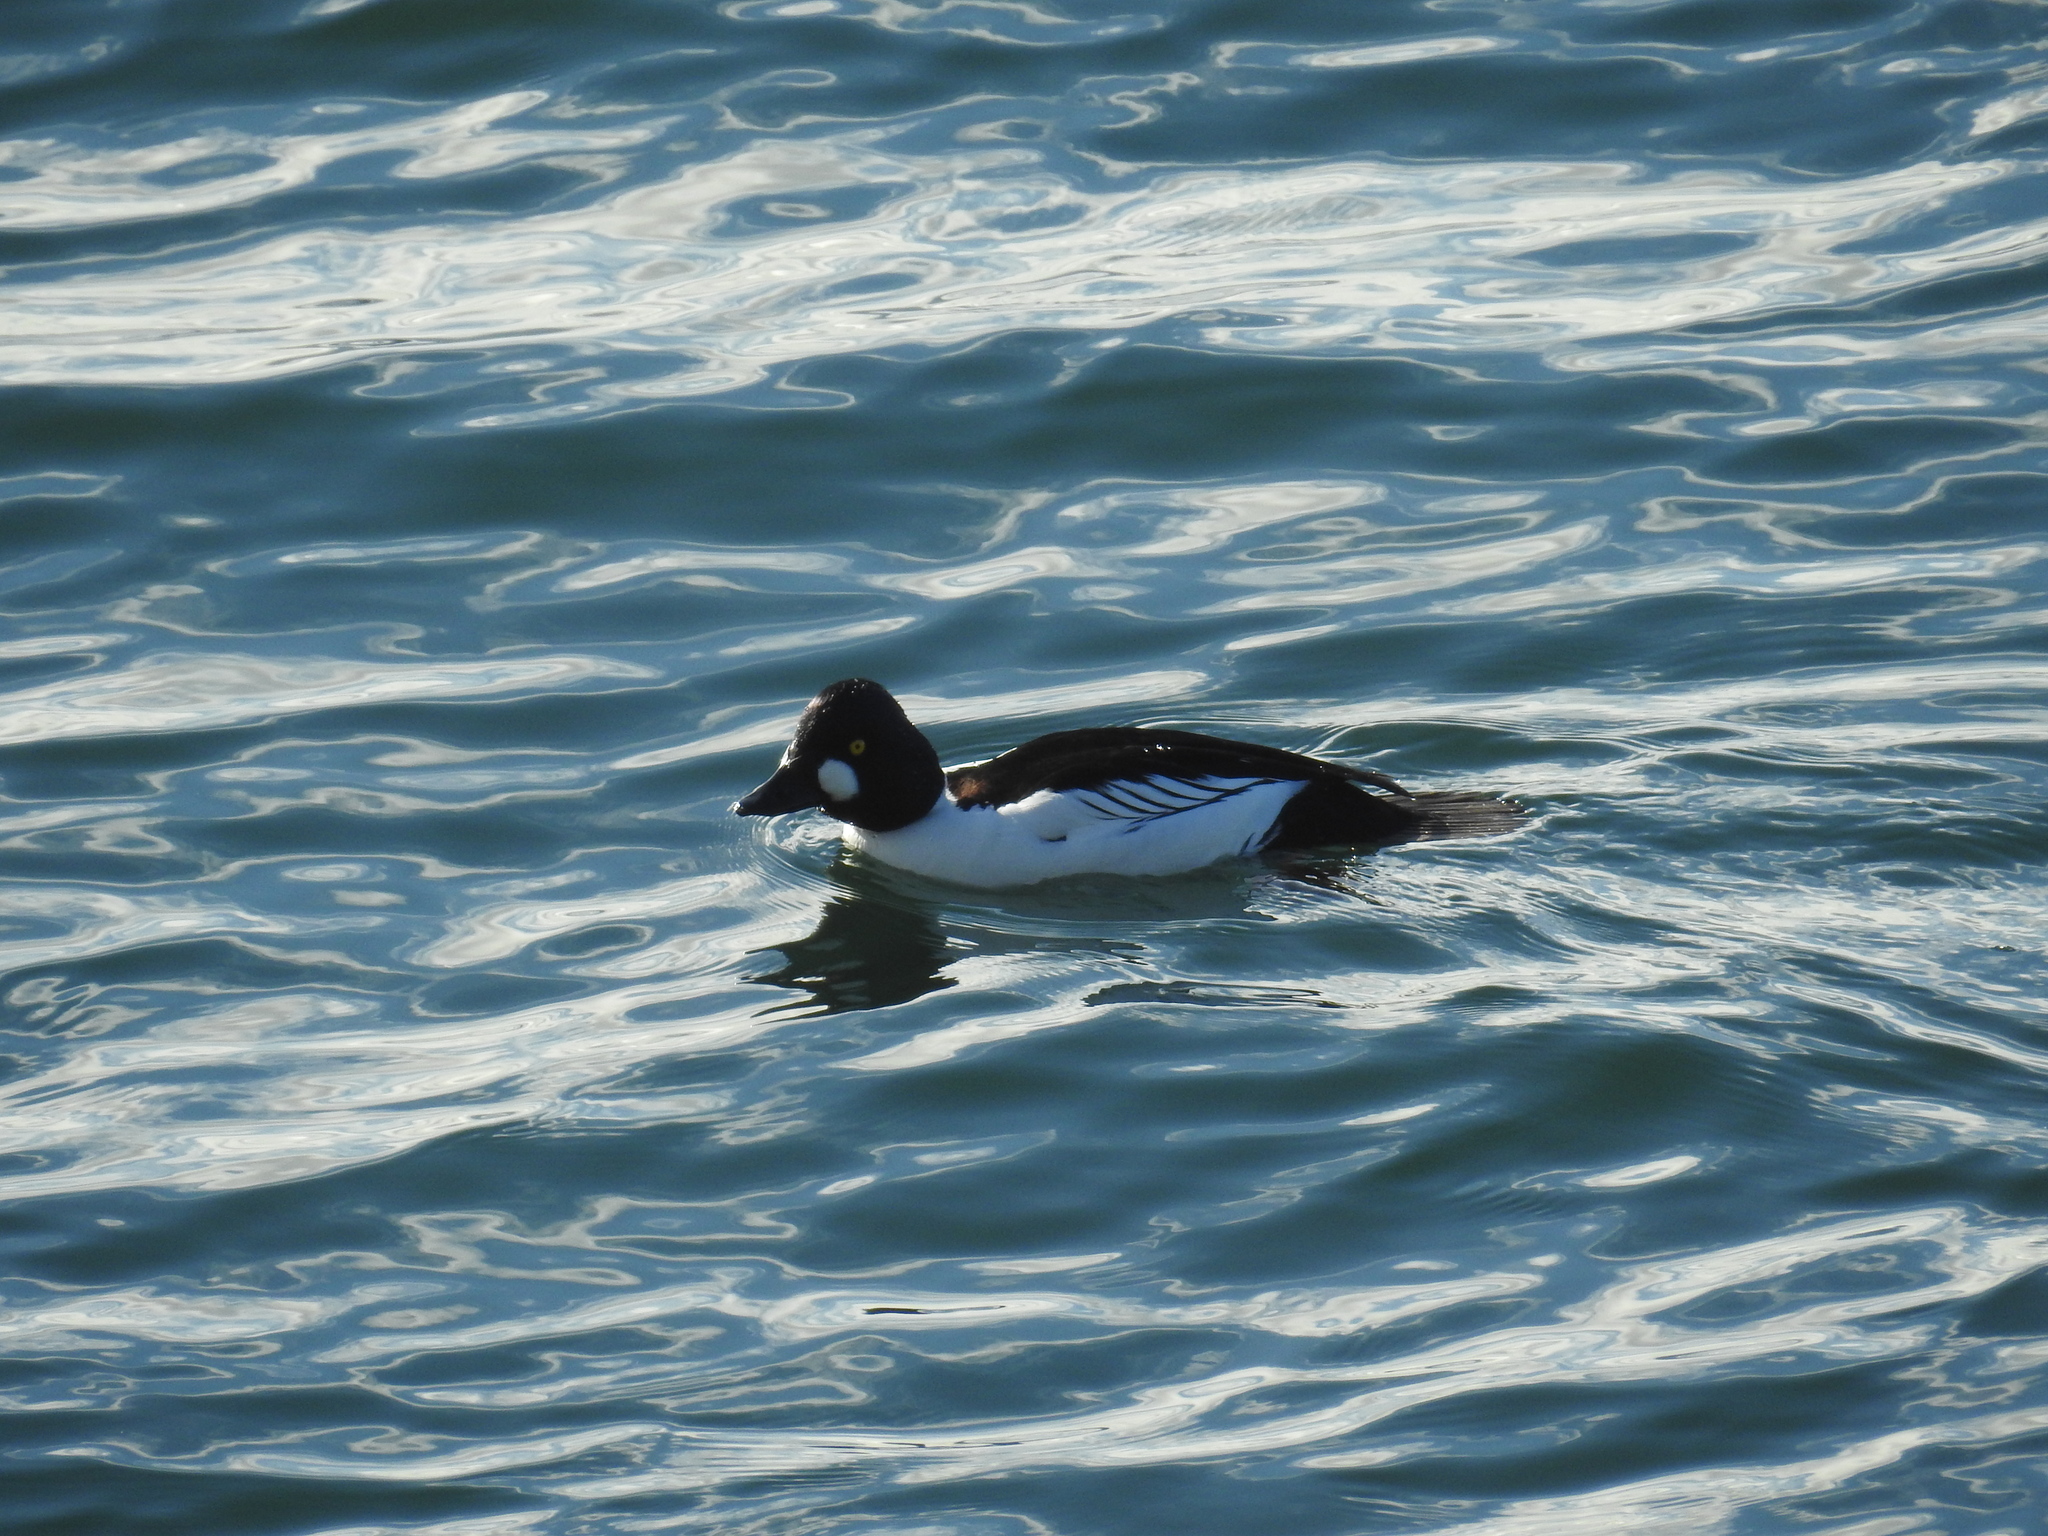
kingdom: Animalia
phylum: Chordata
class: Aves
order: Anseriformes
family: Anatidae
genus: Bucephala
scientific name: Bucephala clangula
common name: Common goldeneye
